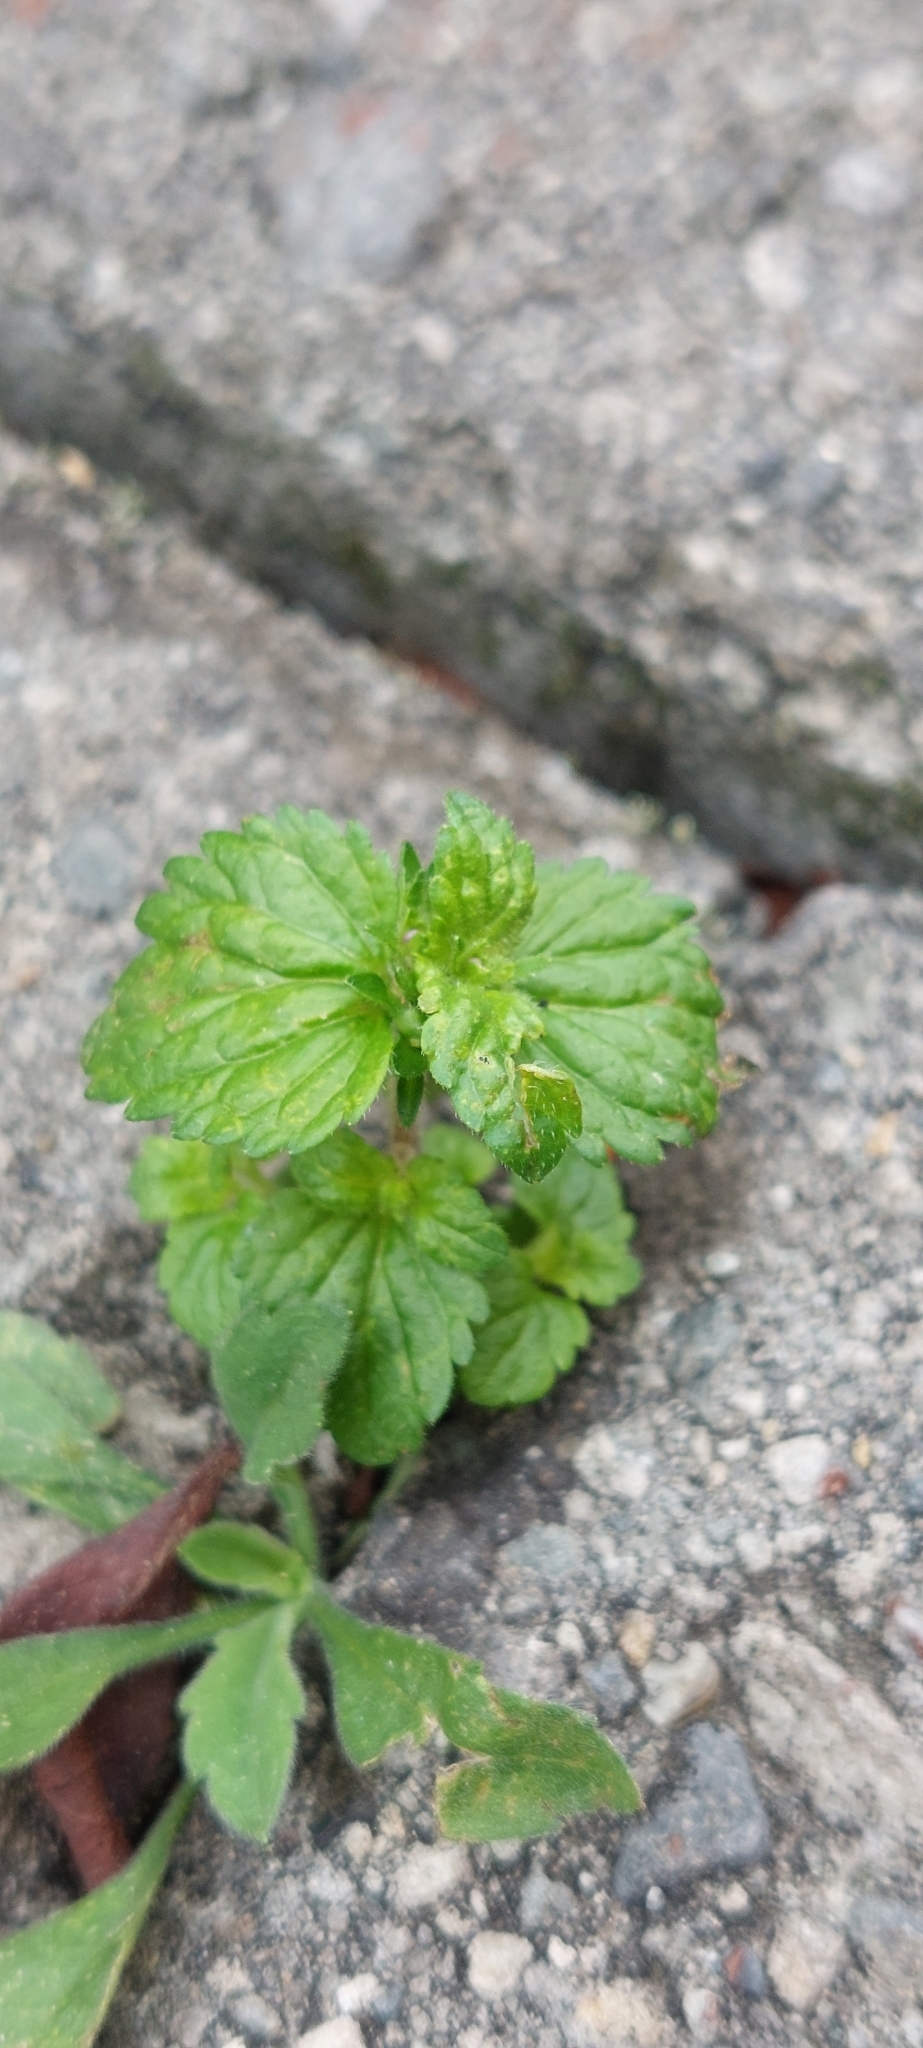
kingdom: Plantae
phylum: Tracheophyta
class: Magnoliopsida
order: Lamiales
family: Plantaginaceae
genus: Veronica
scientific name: Veronica javanica
